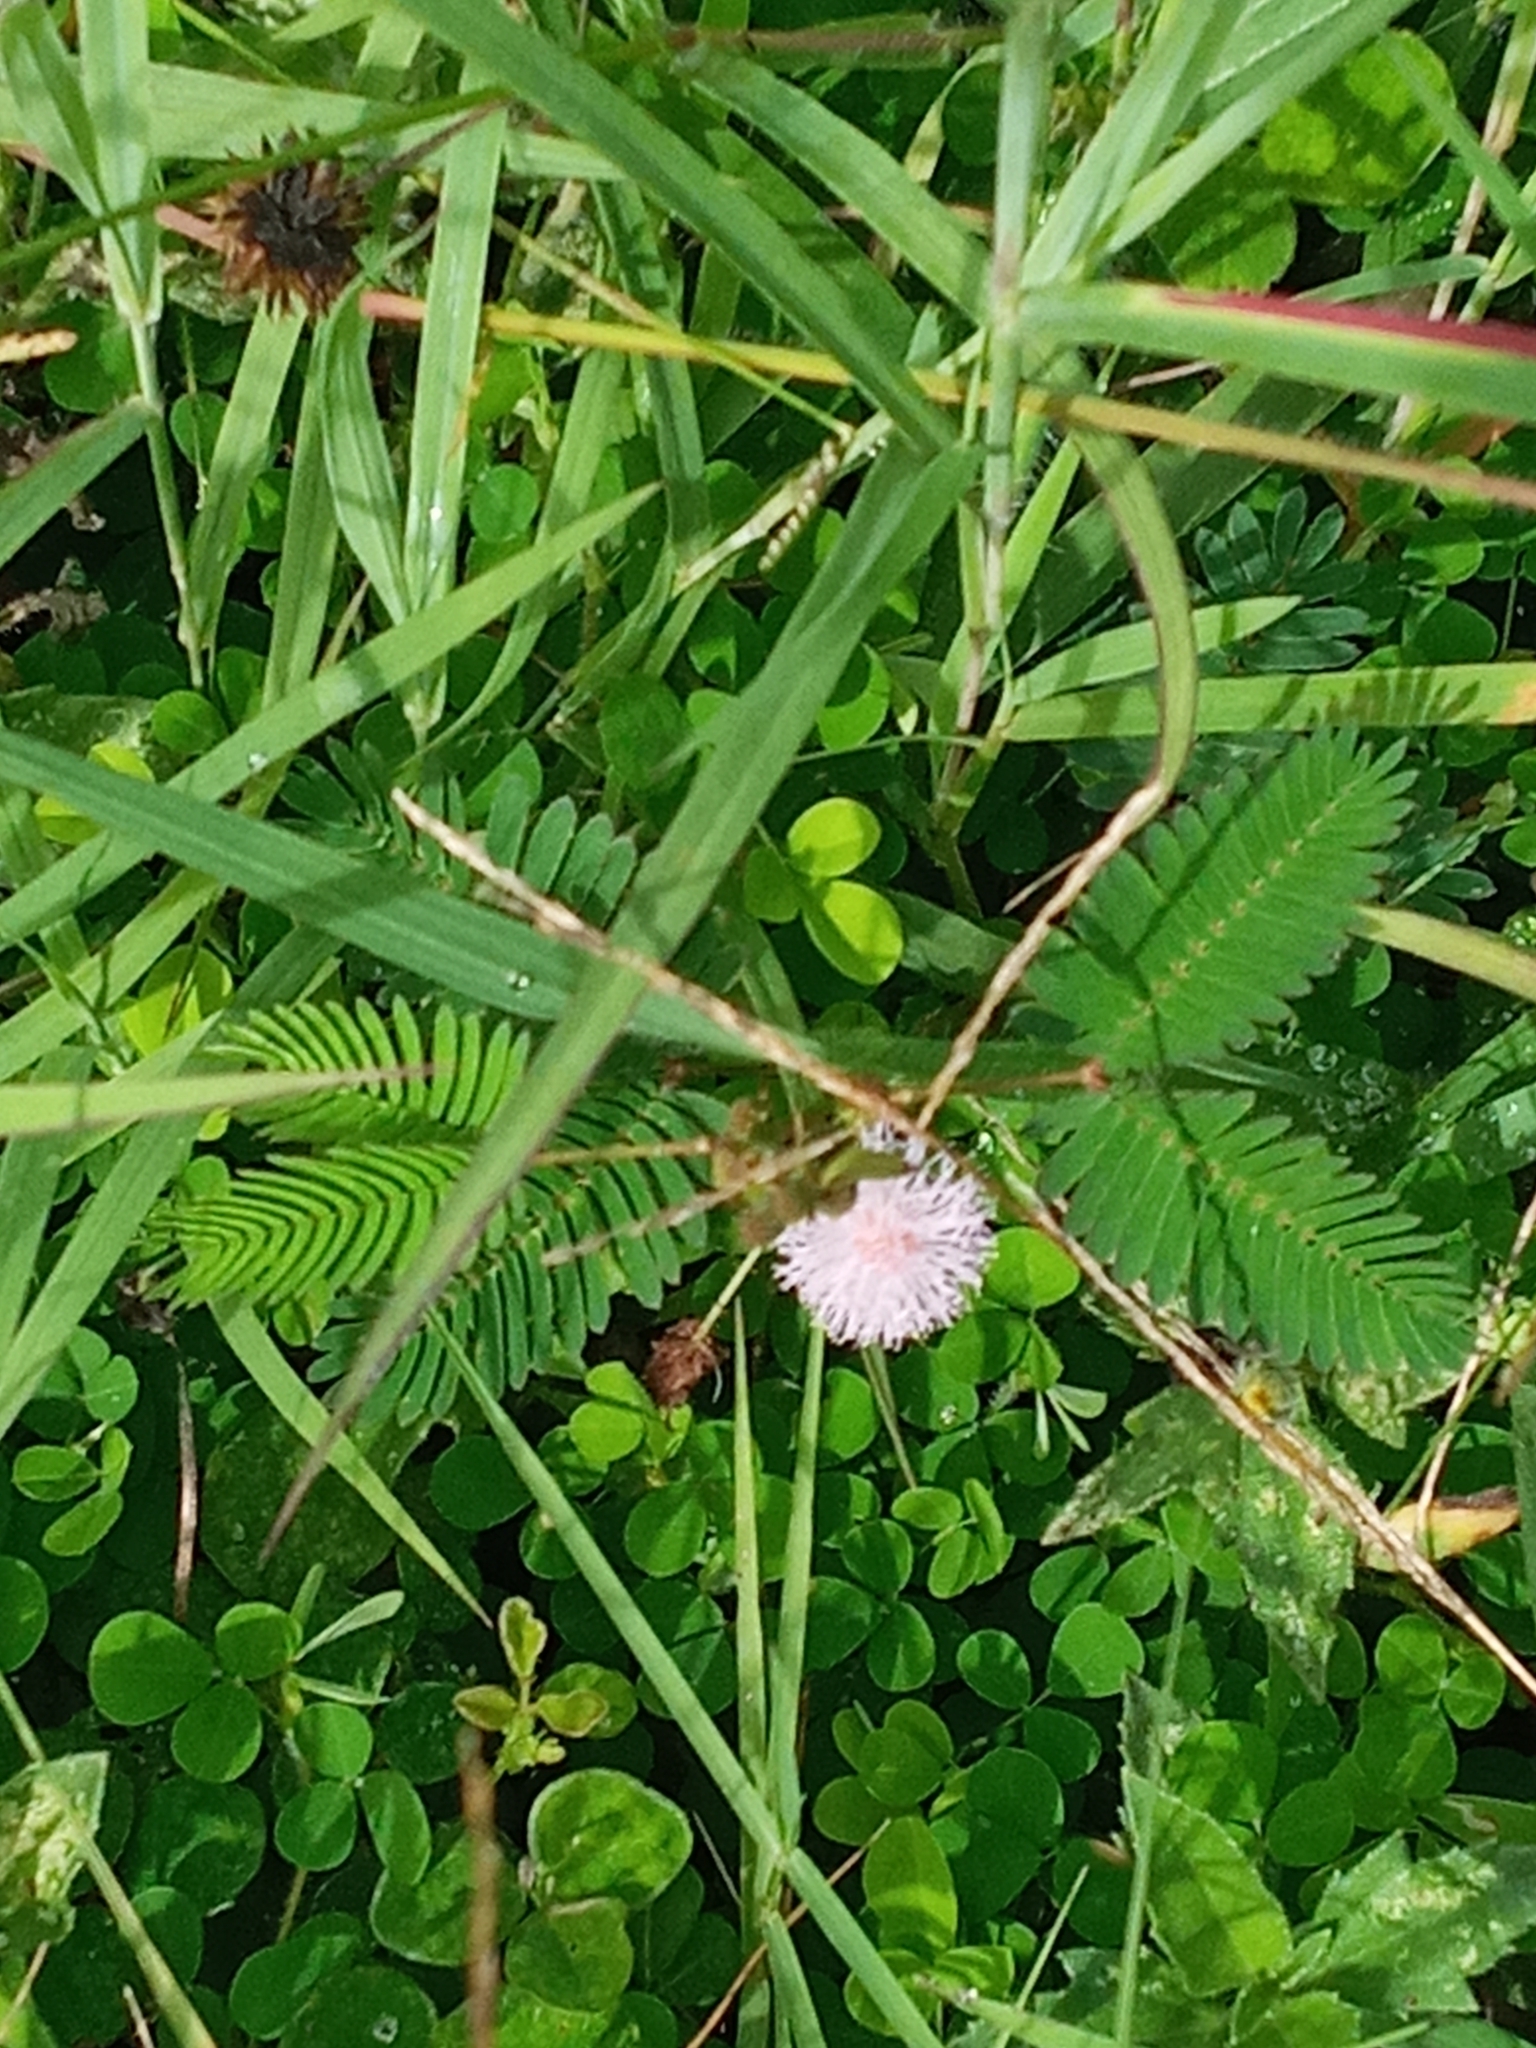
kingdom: Plantae
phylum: Tracheophyta
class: Magnoliopsida
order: Fabales
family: Fabaceae
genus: Mimosa
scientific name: Mimosa pudica
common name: Sensitive plant
